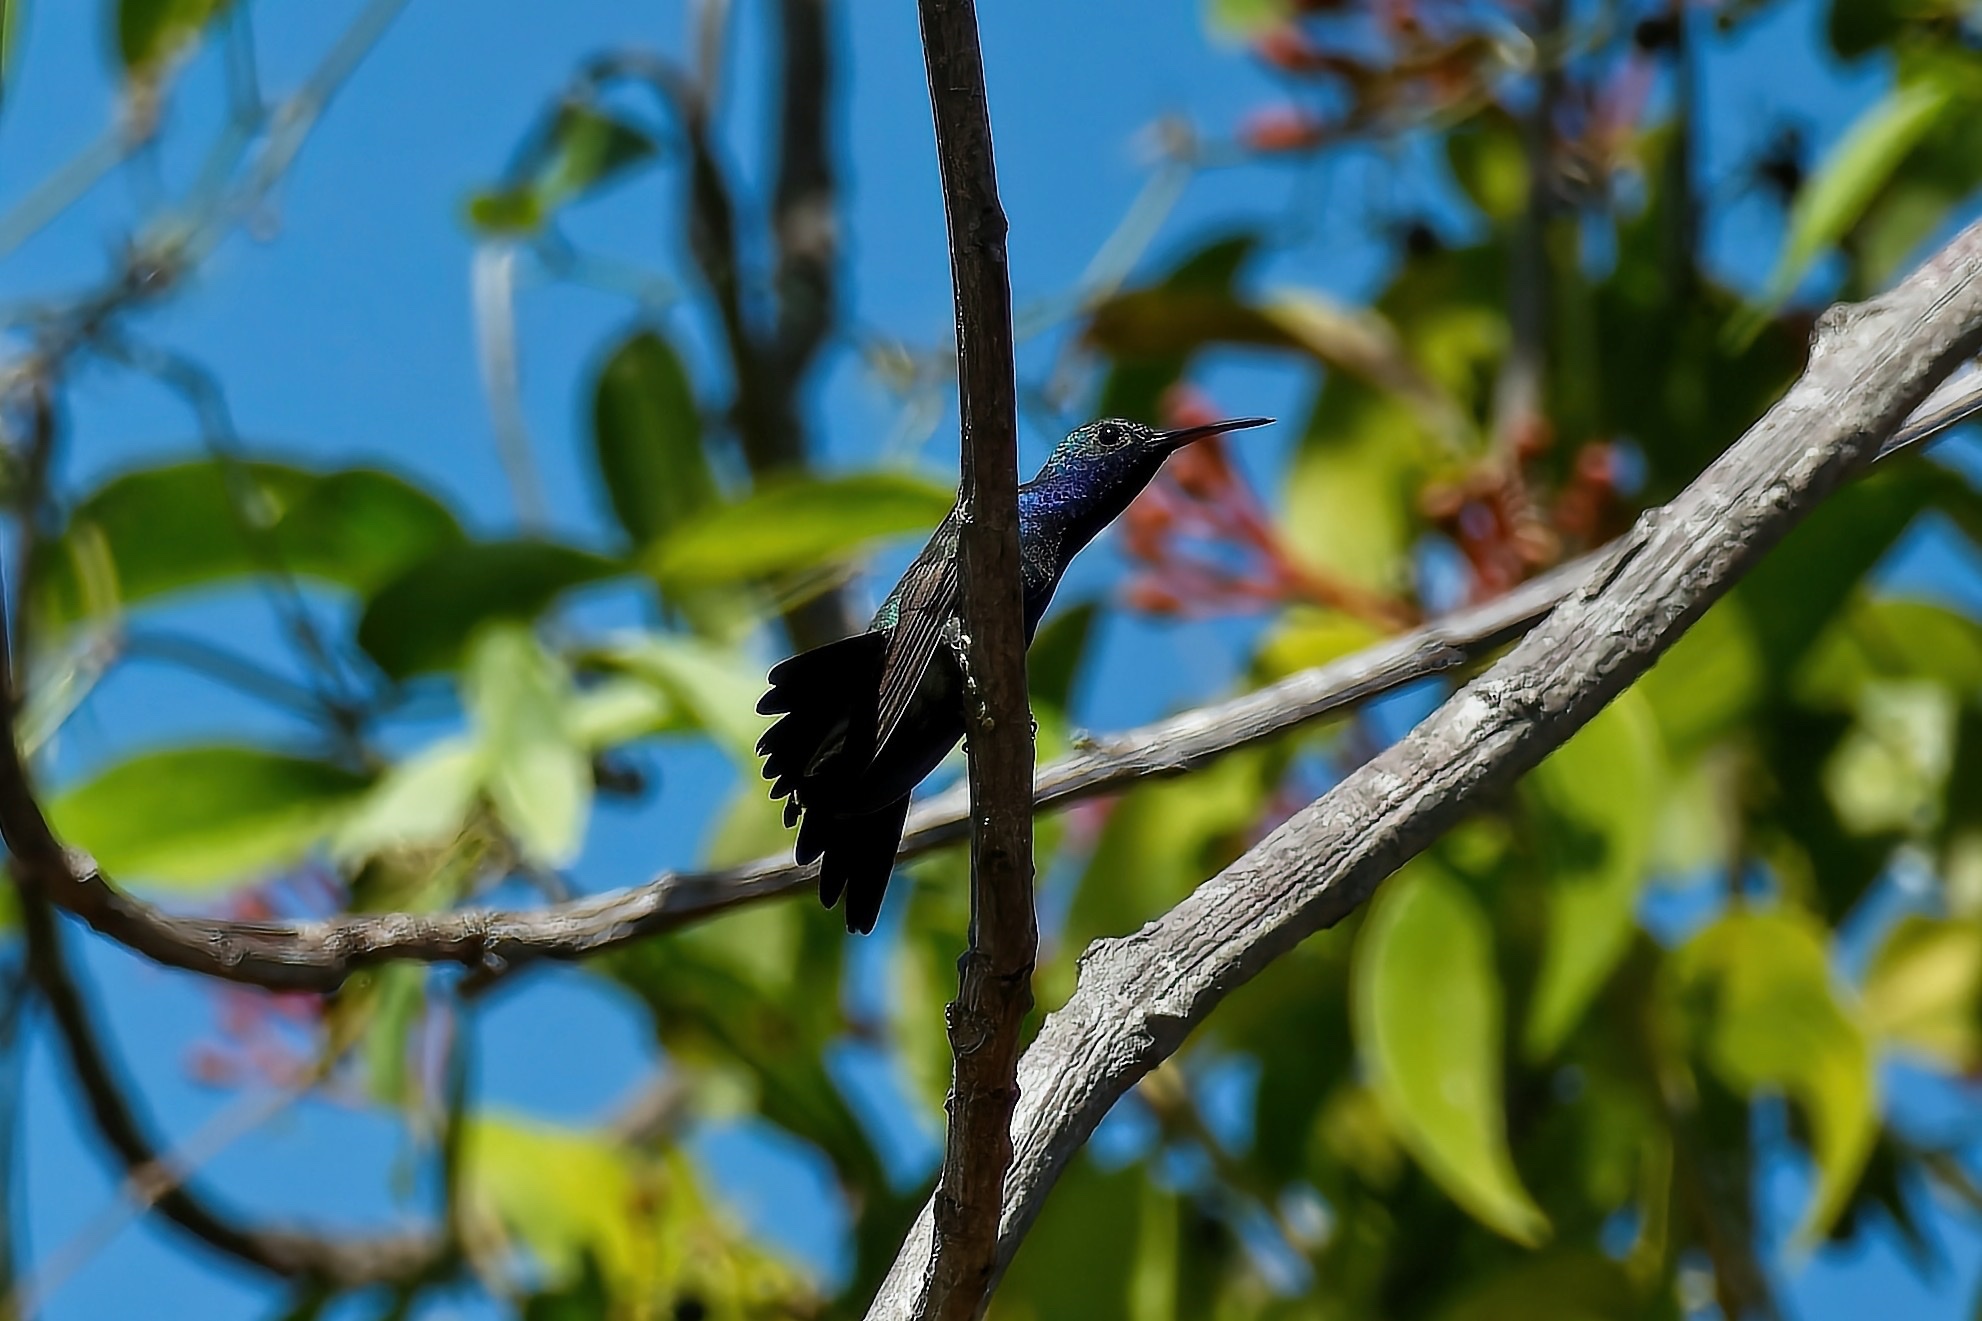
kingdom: Animalia
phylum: Chordata
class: Aves
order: Apodiformes
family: Trochilidae
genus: Chrysuronia
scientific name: Chrysuronia coeruleogularis
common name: Sapphire-throated hummingbird
